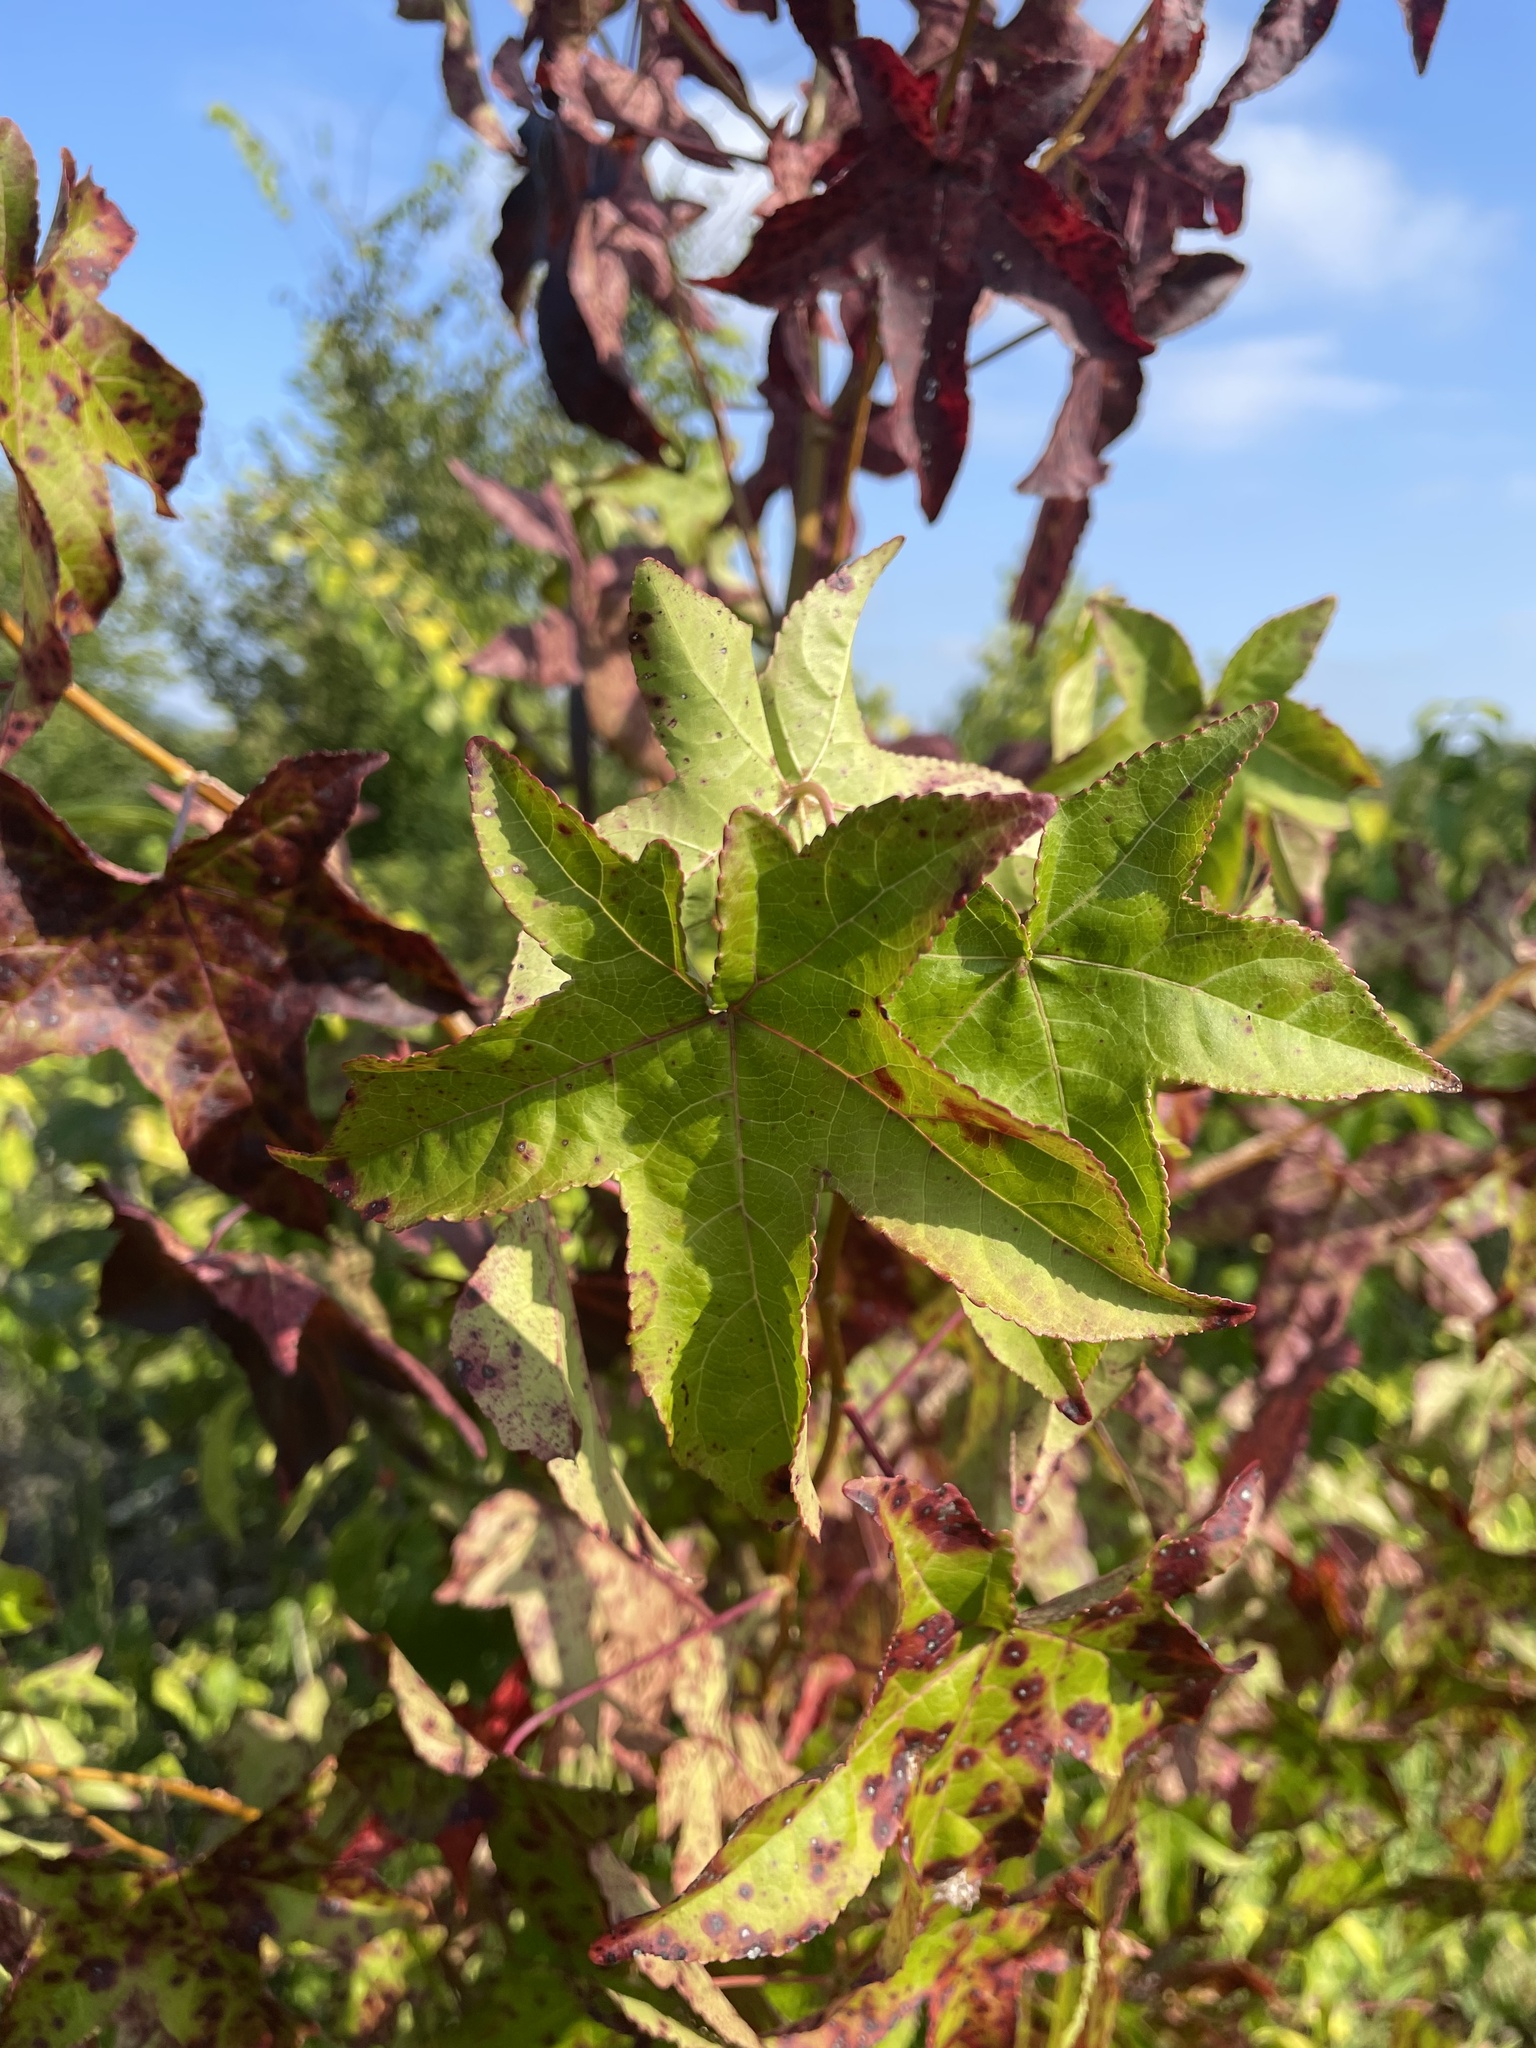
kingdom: Plantae
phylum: Tracheophyta
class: Magnoliopsida
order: Saxifragales
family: Altingiaceae
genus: Liquidambar
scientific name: Liquidambar styraciflua
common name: Sweet gum
